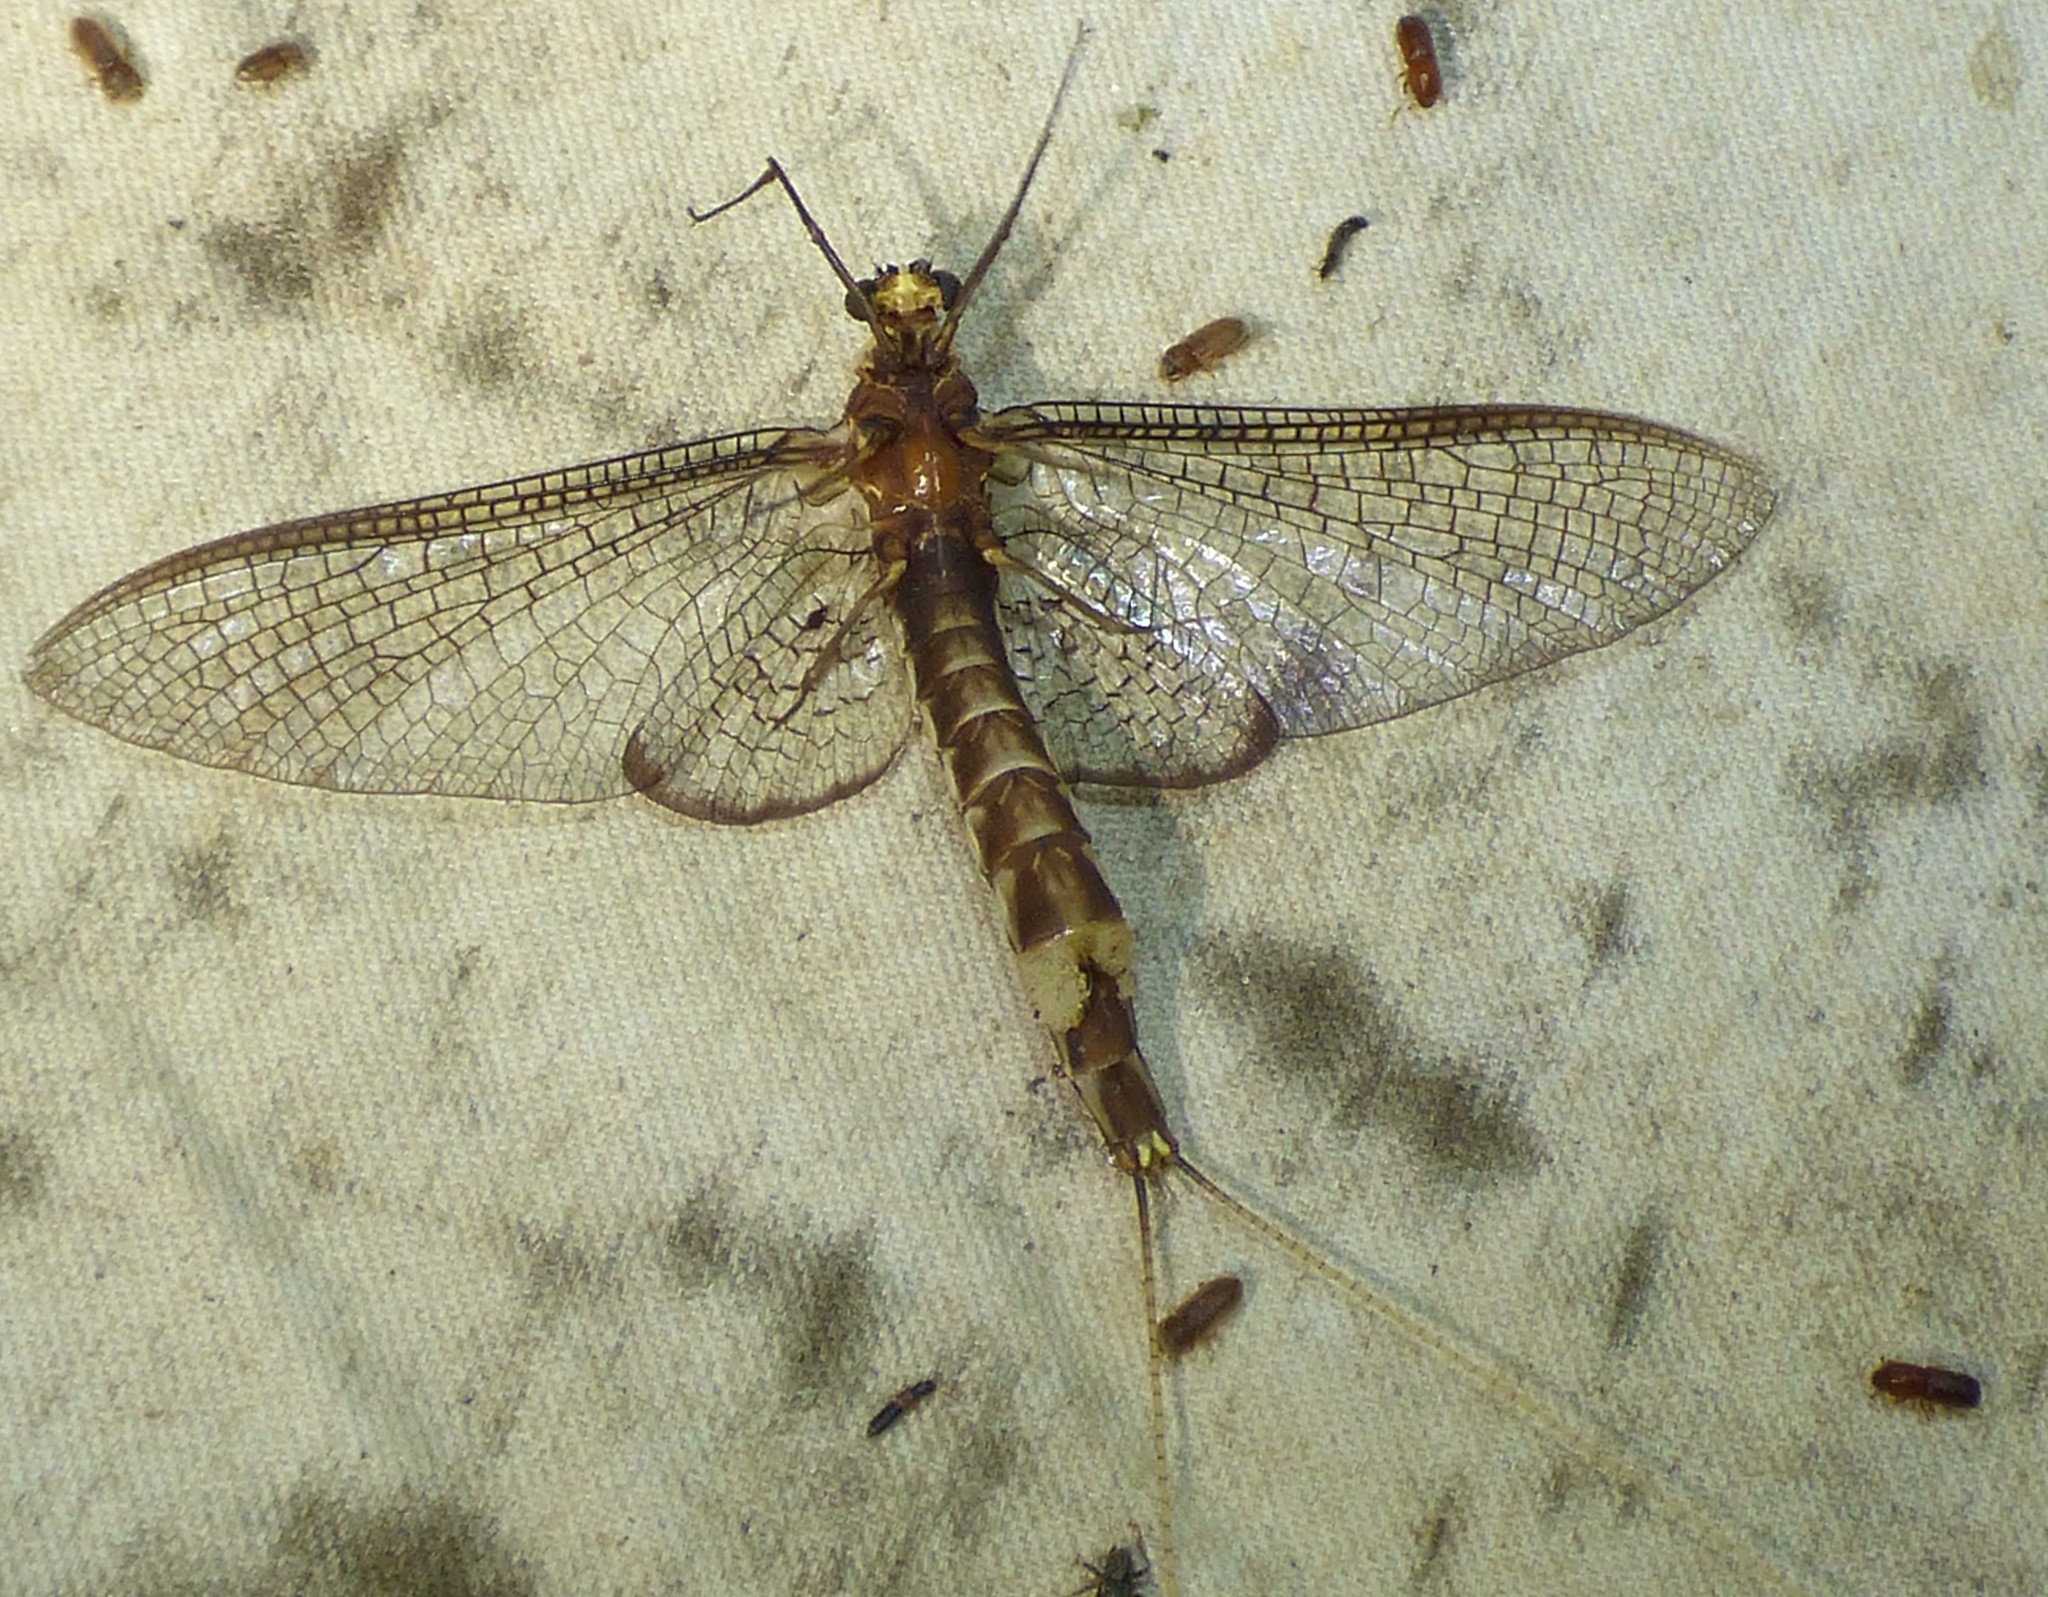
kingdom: Animalia
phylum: Arthropoda
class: Insecta
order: Ephemeroptera
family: Ephemeridae
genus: Hexagenia
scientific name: Hexagenia atrocaudata
